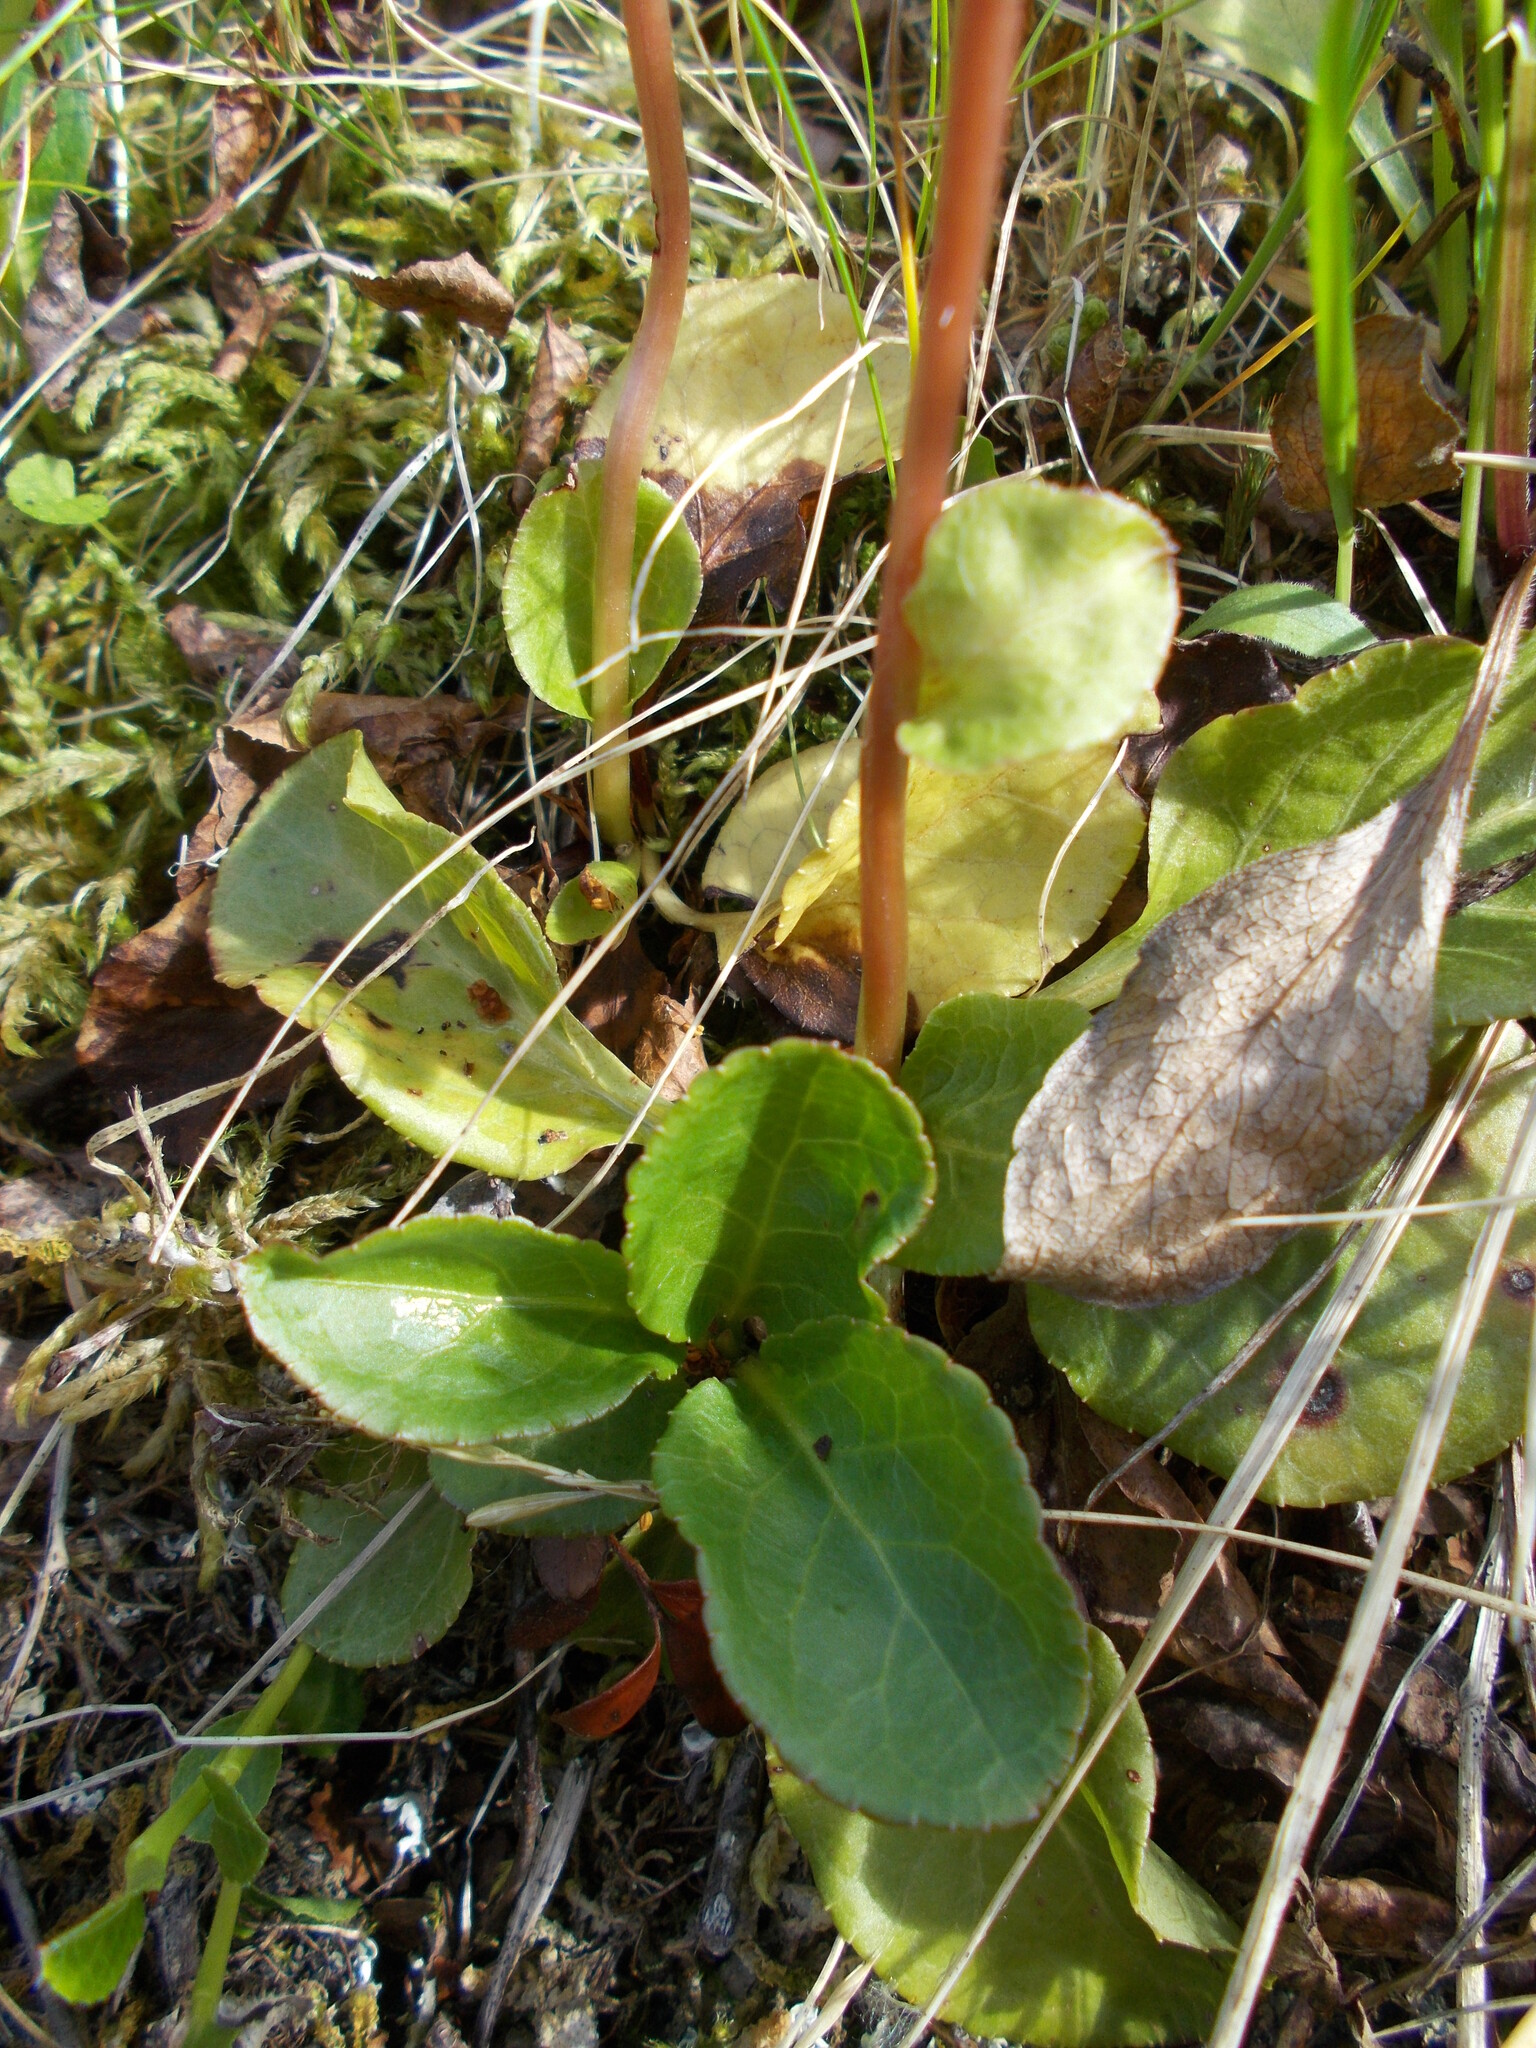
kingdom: Plantae
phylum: Tracheophyta
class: Magnoliopsida
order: Ericales
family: Ericaceae
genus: Pyrola
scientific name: Pyrola minor
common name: Common wintergreen
